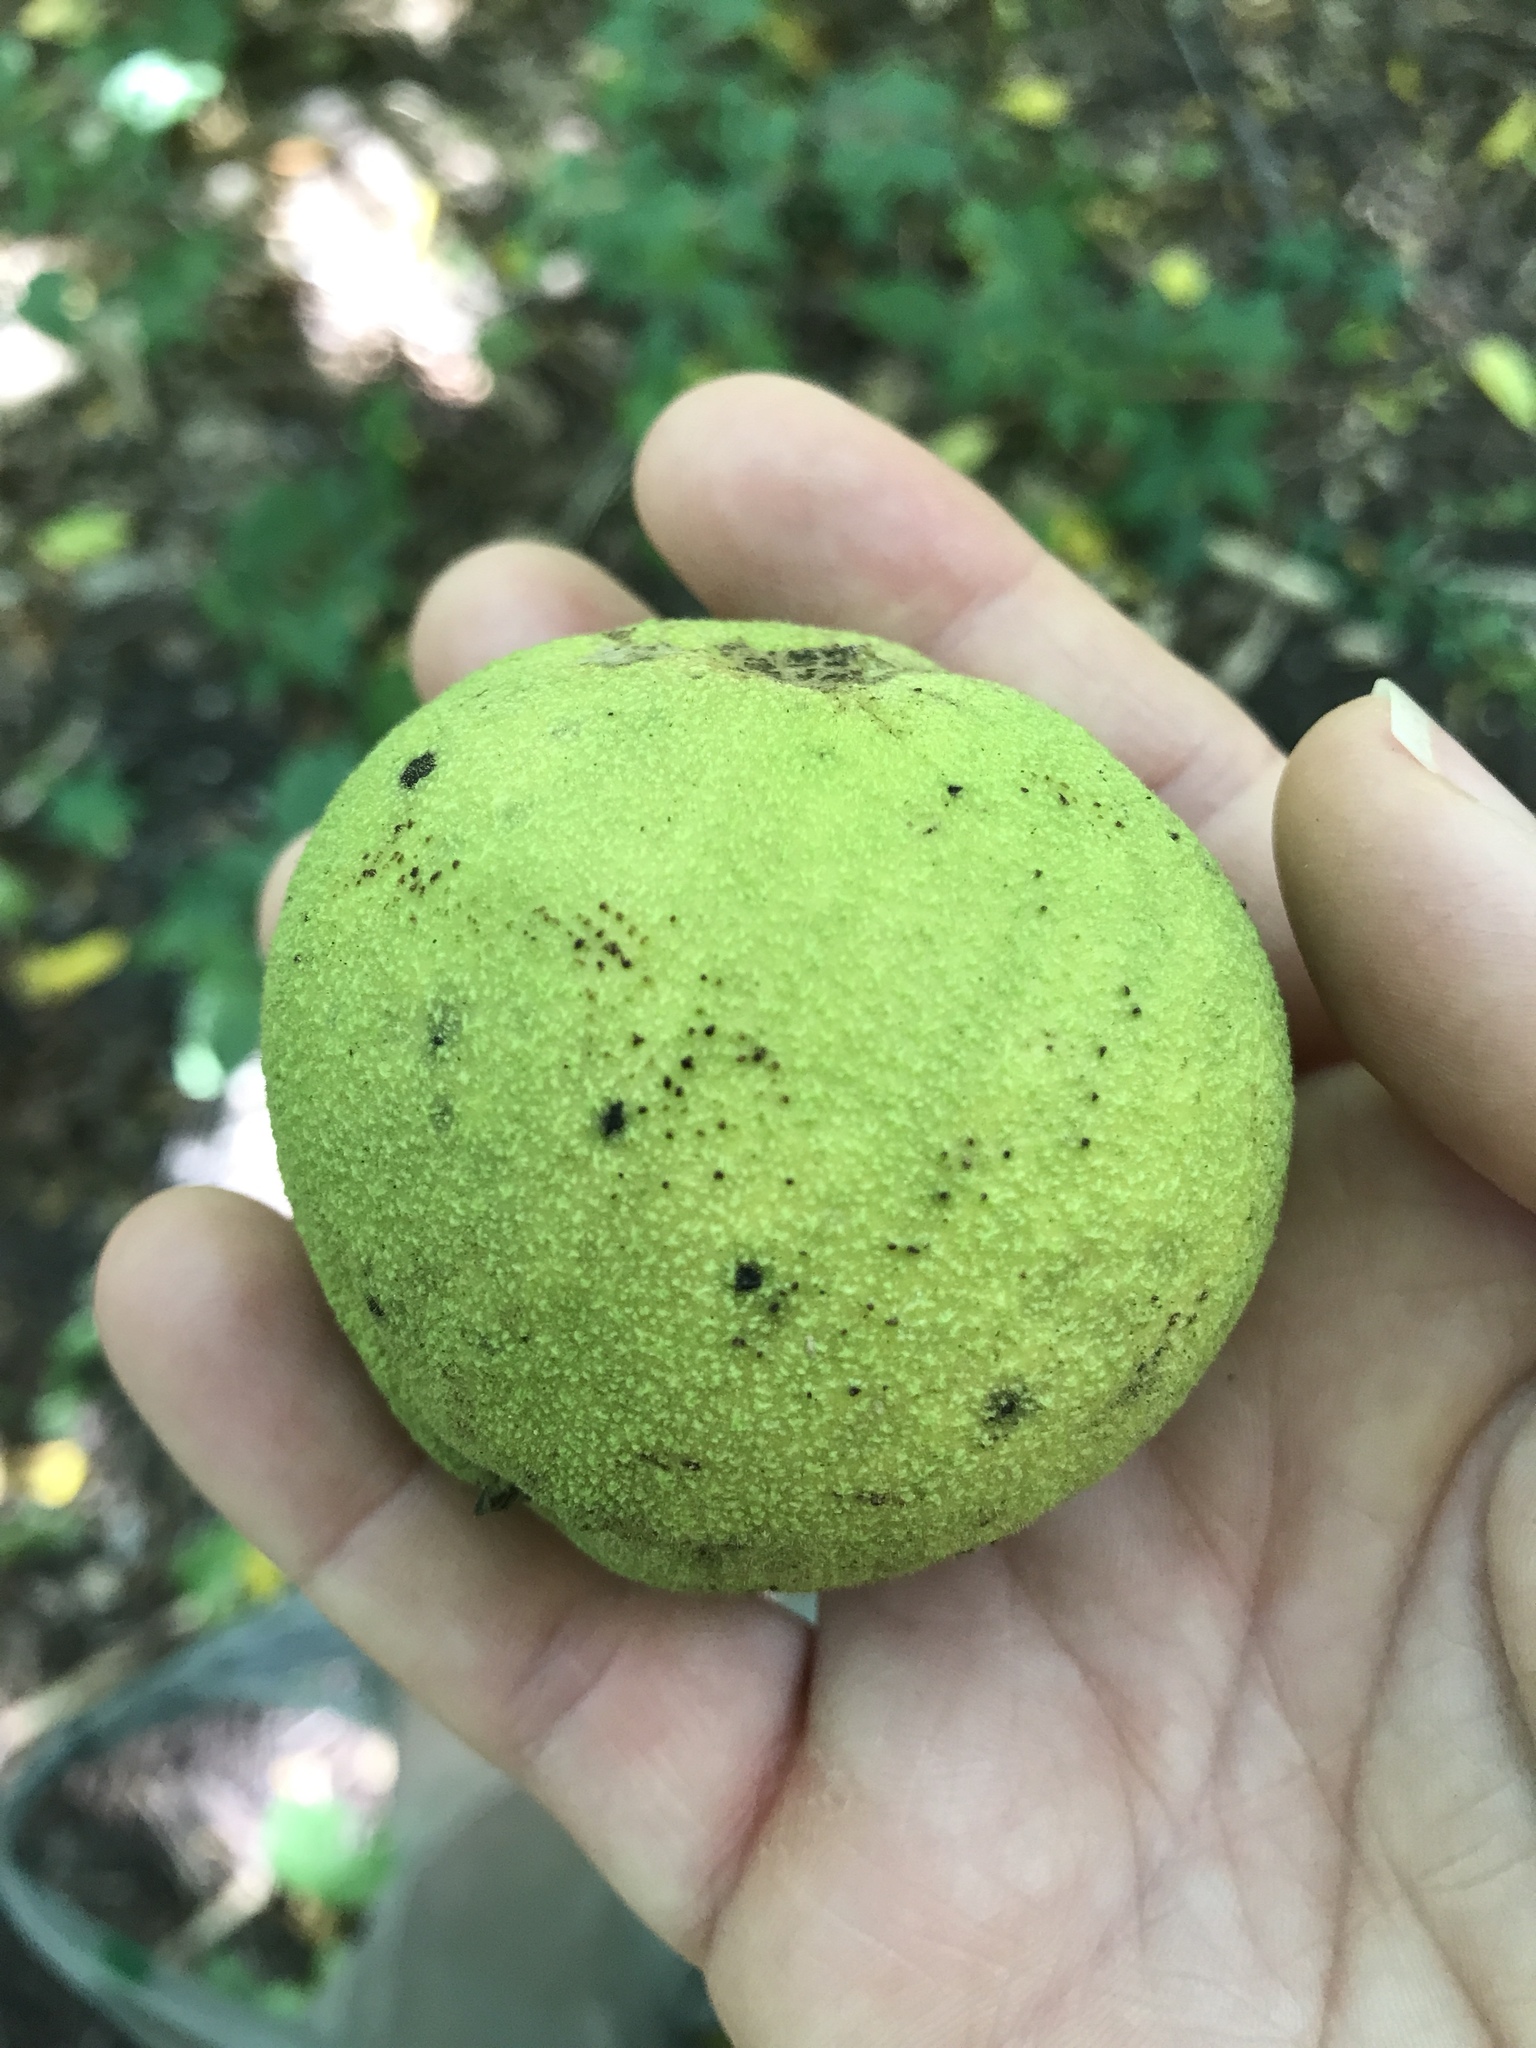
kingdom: Plantae
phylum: Tracheophyta
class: Magnoliopsida
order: Fagales
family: Juglandaceae
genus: Juglans
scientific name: Juglans nigra
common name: Black walnut
